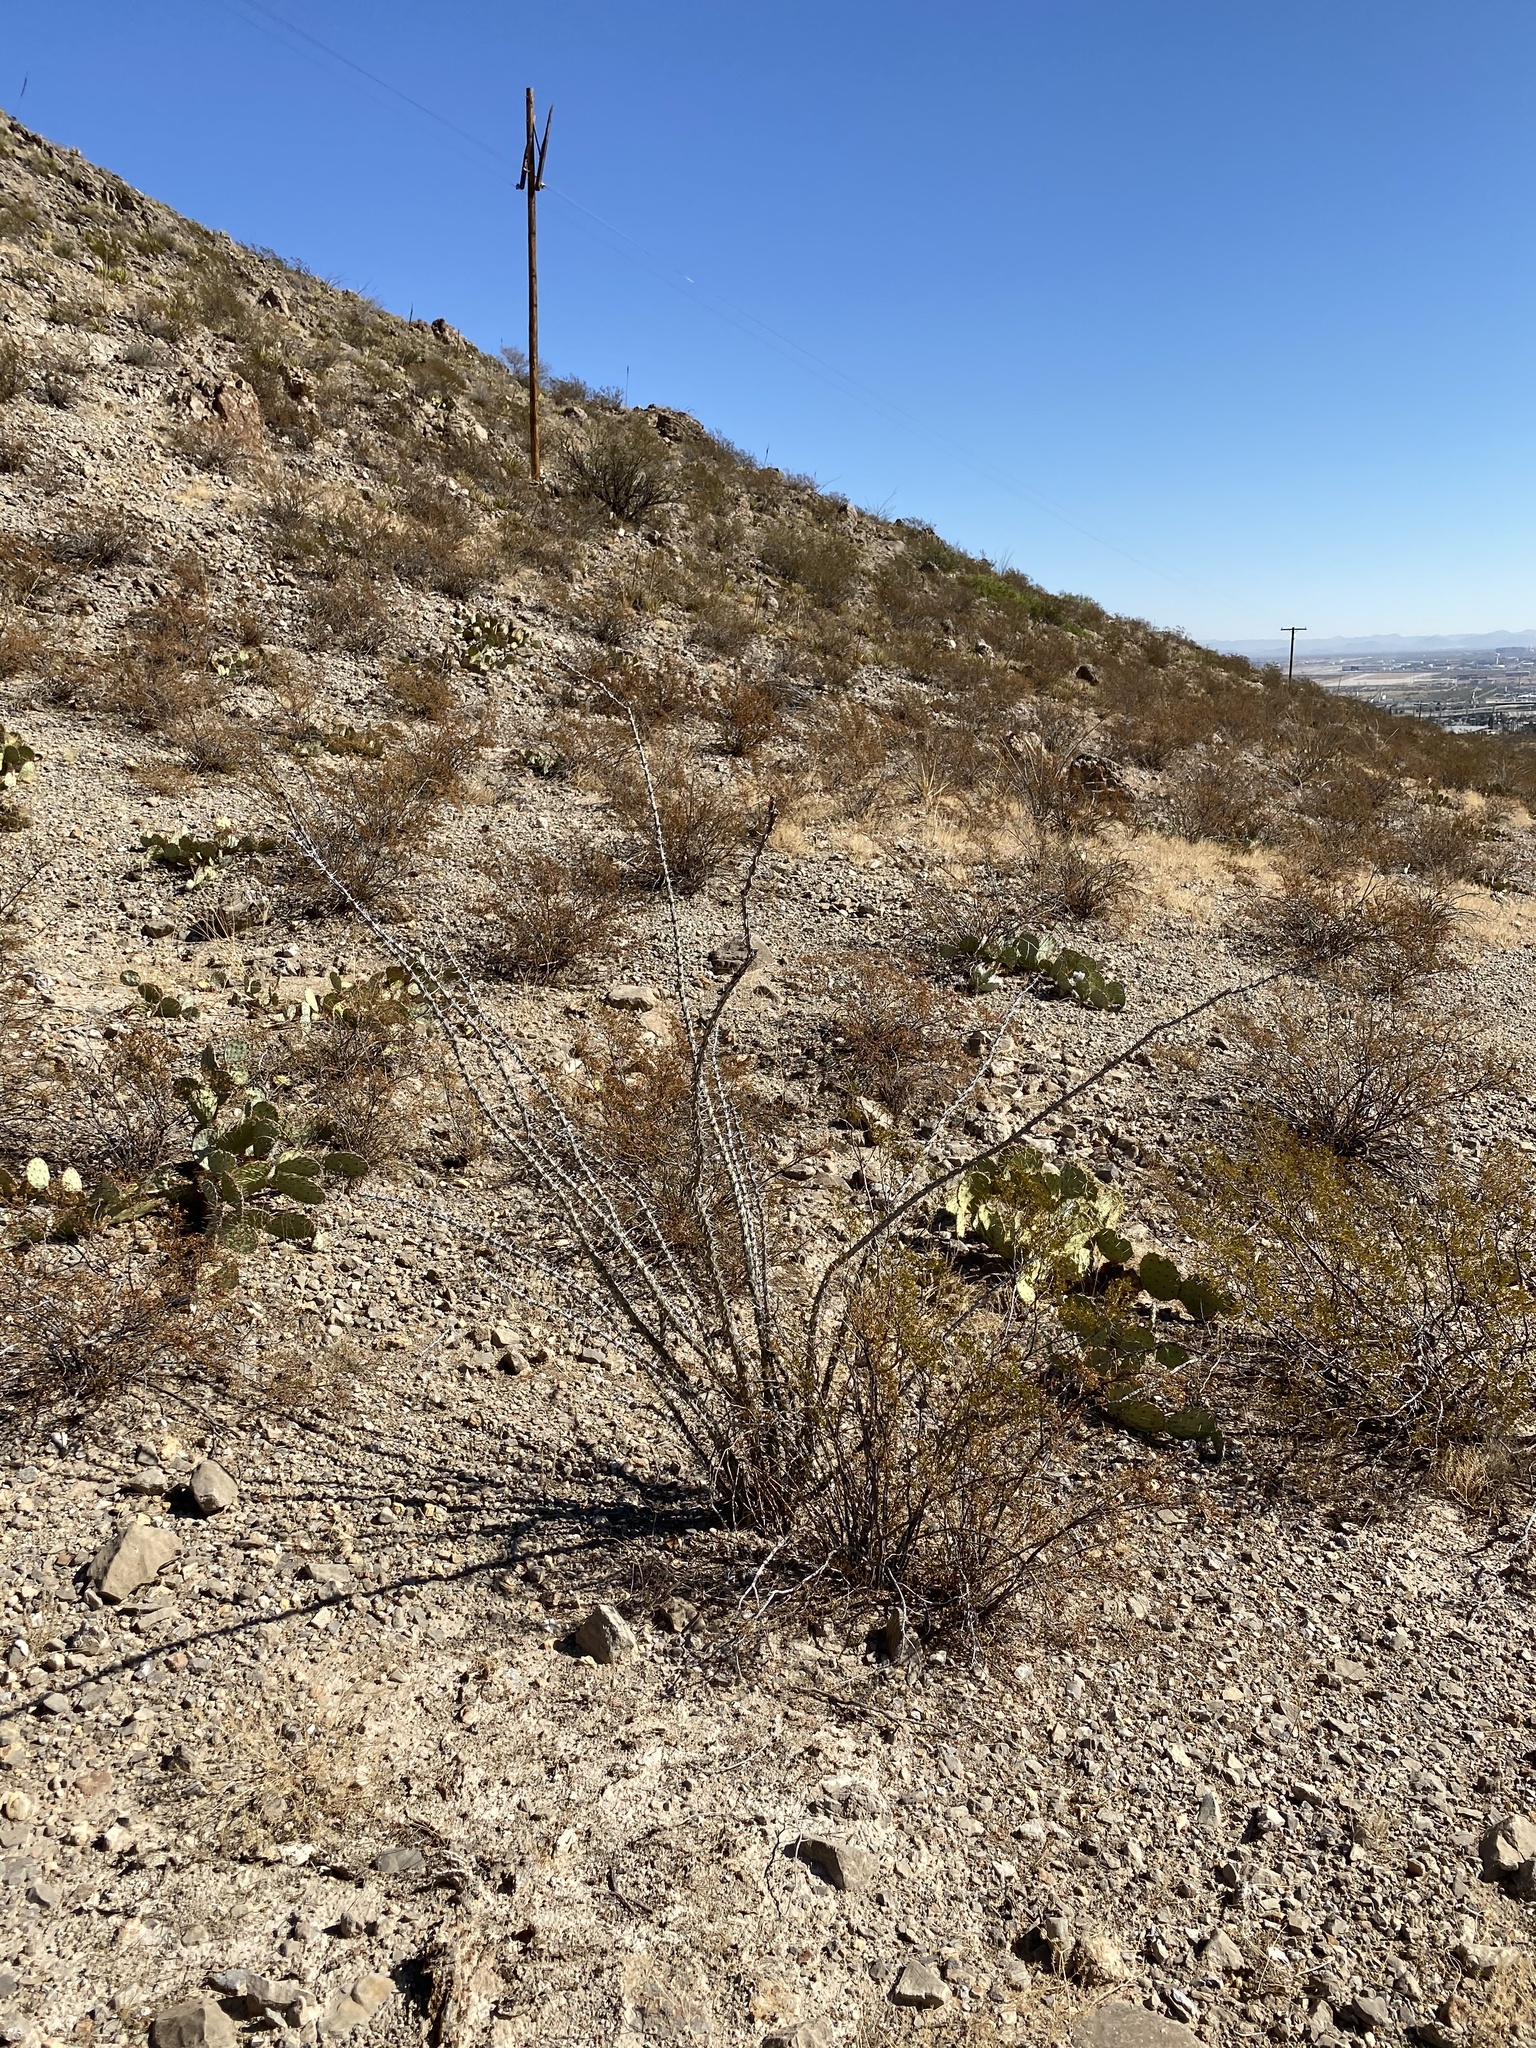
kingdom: Plantae
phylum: Tracheophyta
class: Magnoliopsida
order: Ericales
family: Fouquieriaceae
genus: Fouquieria
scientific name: Fouquieria splendens
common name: Vine-cactus
